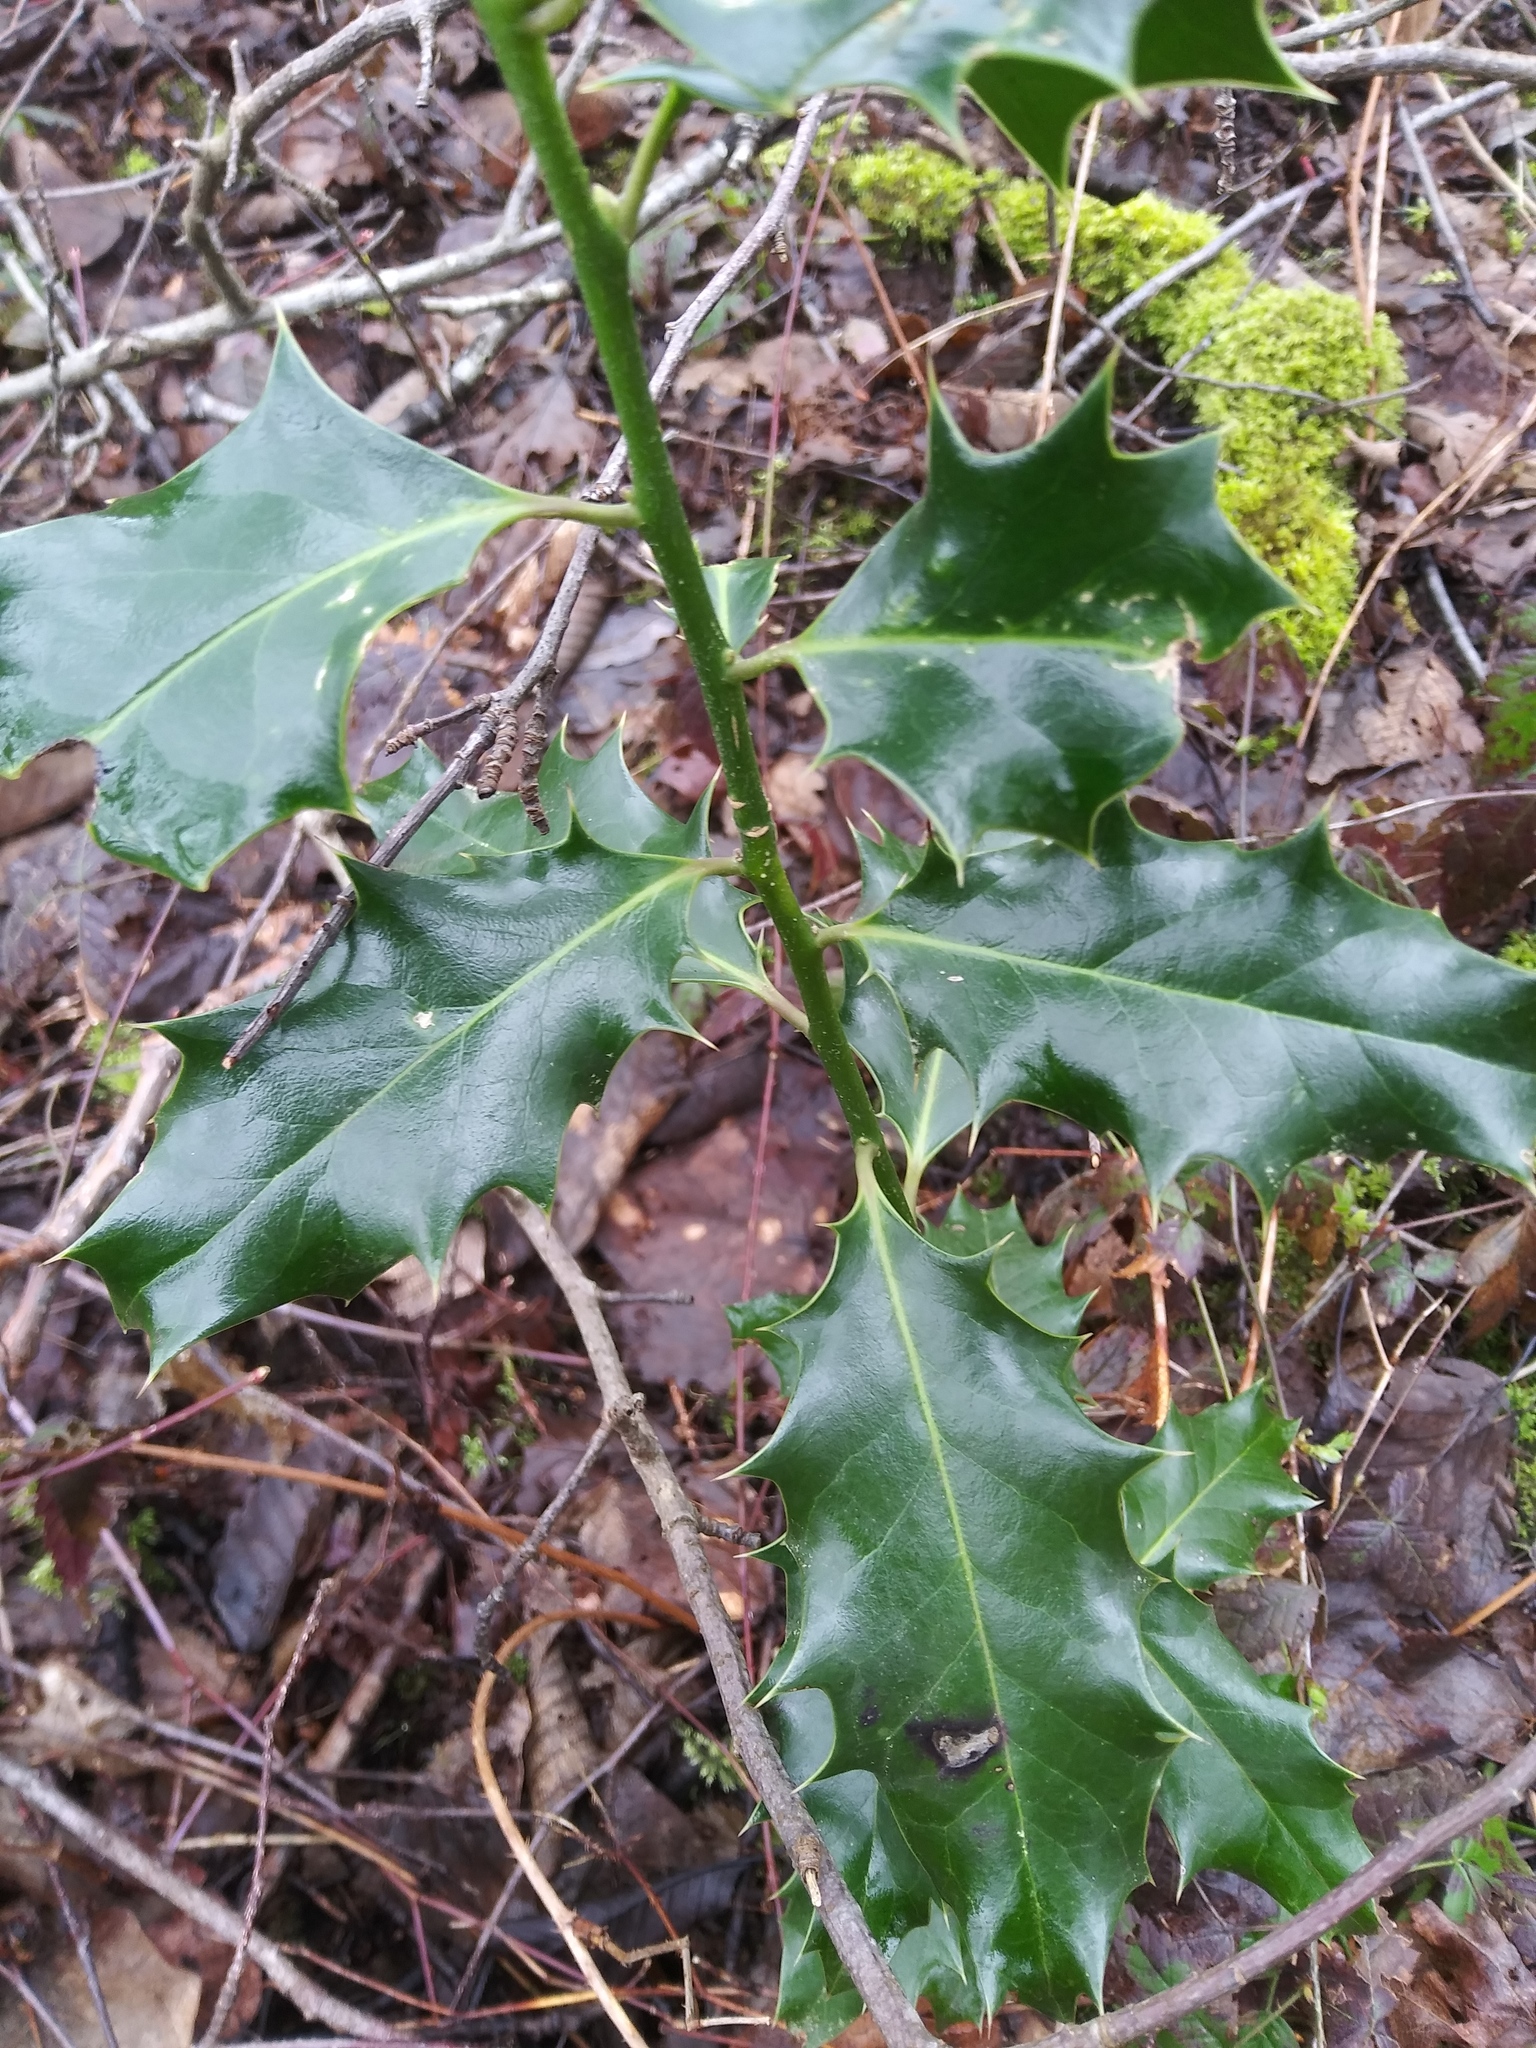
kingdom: Plantae
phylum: Tracheophyta
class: Magnoliopsida
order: Aquifoliales
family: Aquifoliaceae
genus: Ilex
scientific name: Ilex aquifolium
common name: English holly
